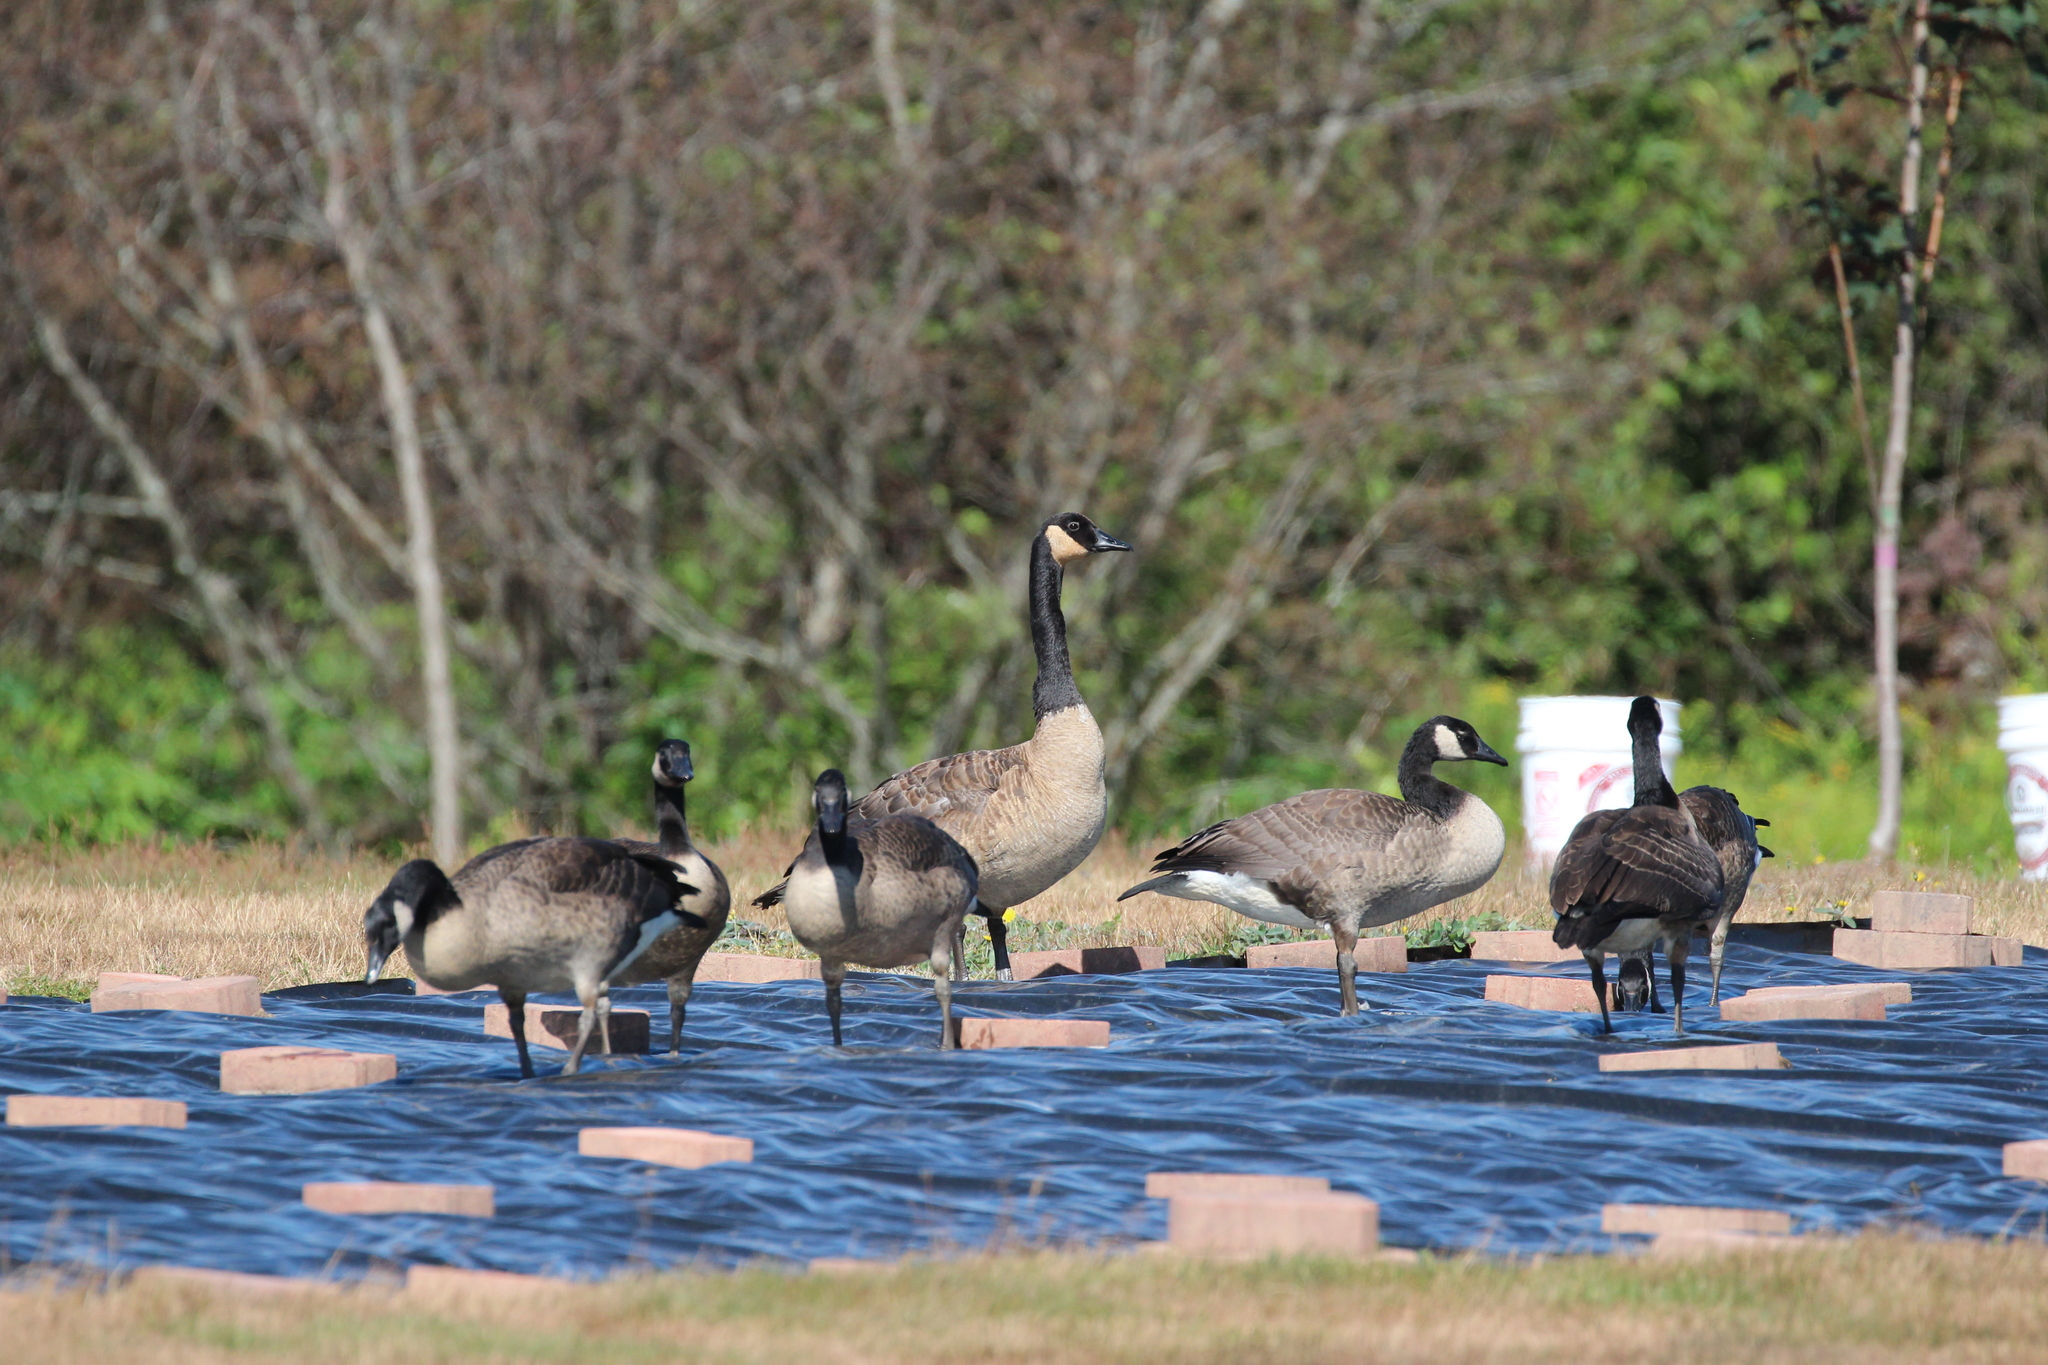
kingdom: Animalia
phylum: Chordata
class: Aves
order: Anseriformes
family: Anatidae
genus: Branta
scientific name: Branta canadensis
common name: Canada goose
